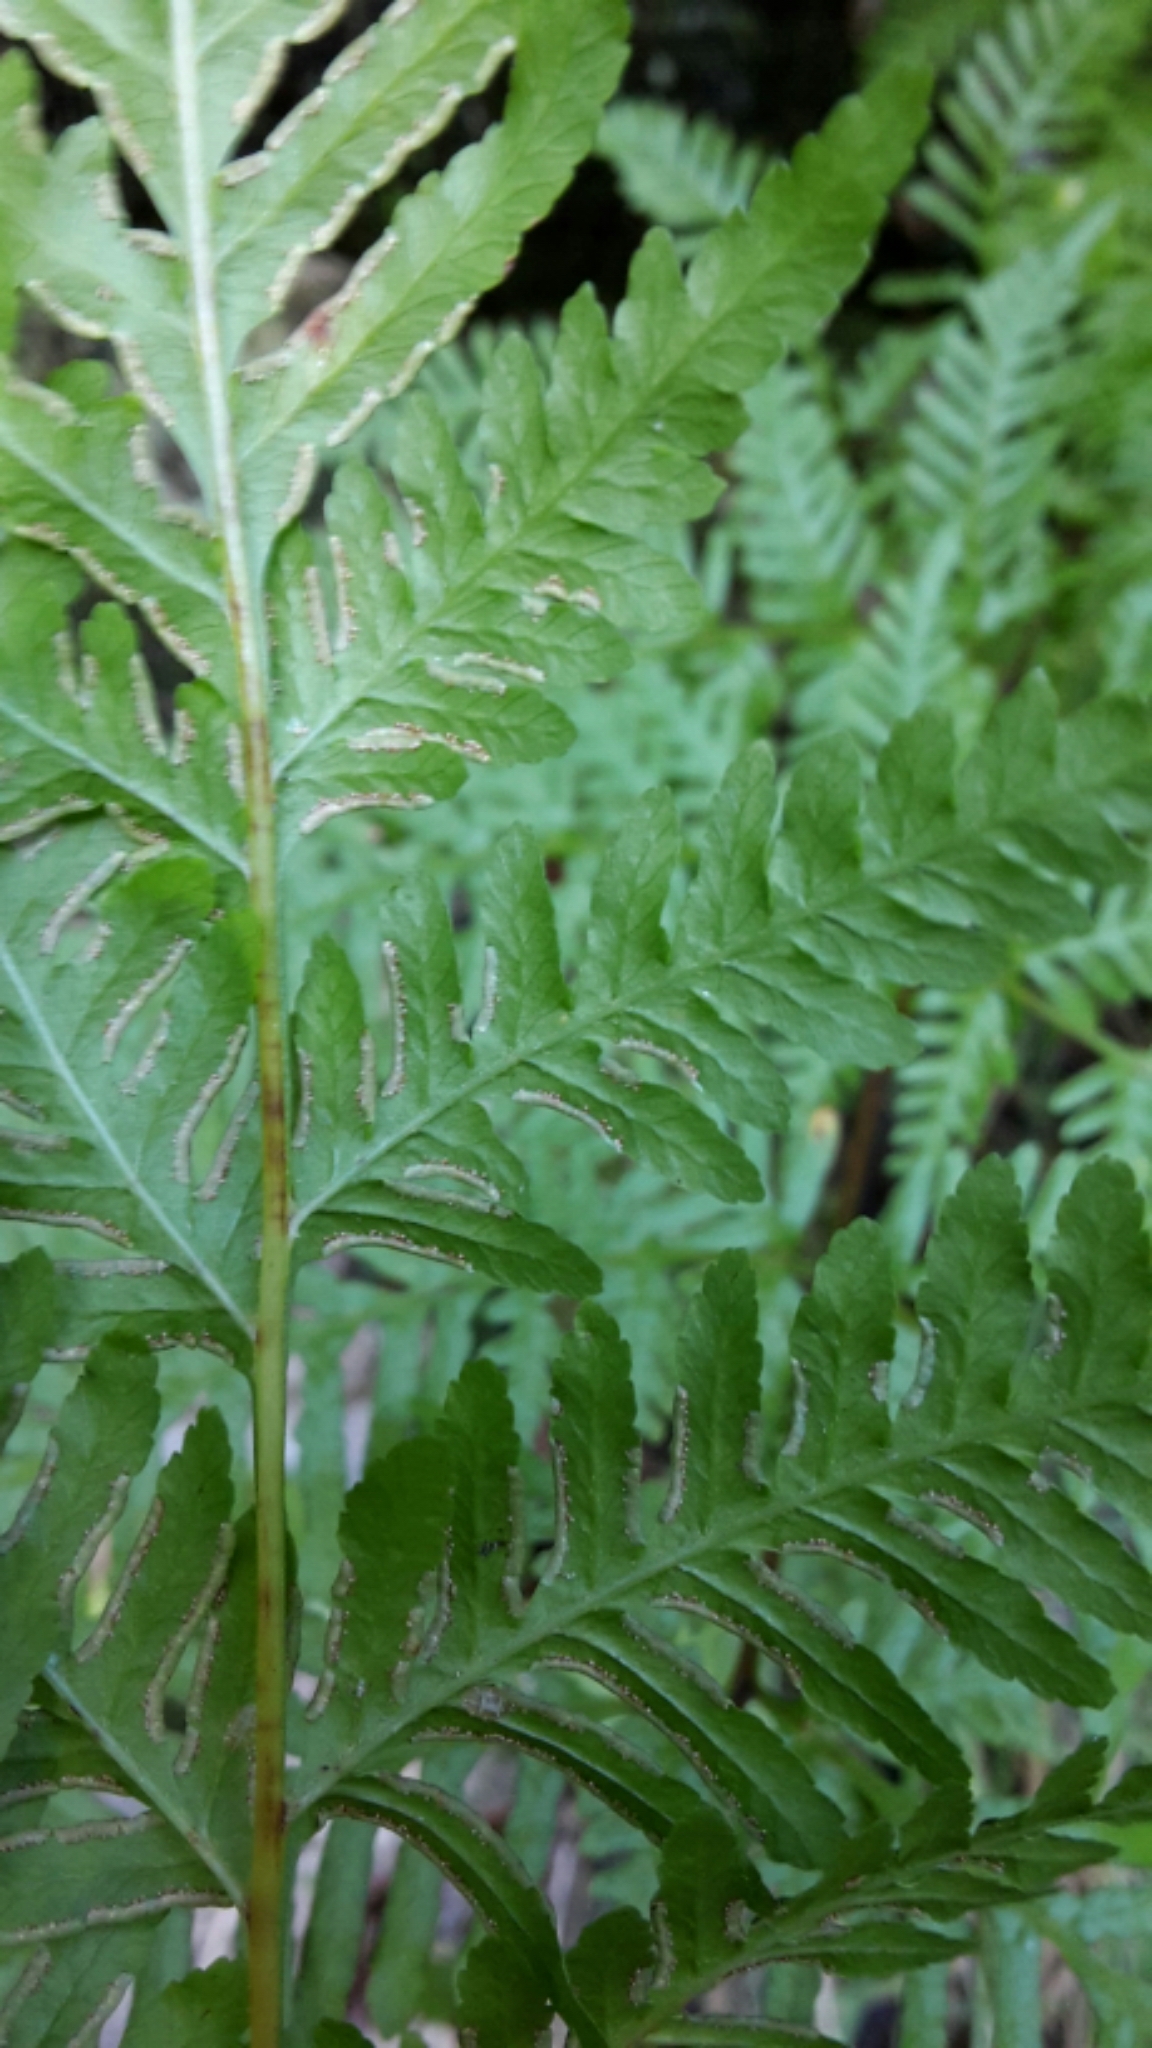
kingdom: Plantae
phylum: Tracheophyta
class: Polypodiopsida
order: Polypodiales
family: Pteridaceae
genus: Pteris
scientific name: Pteris tremula
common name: Australian brake
